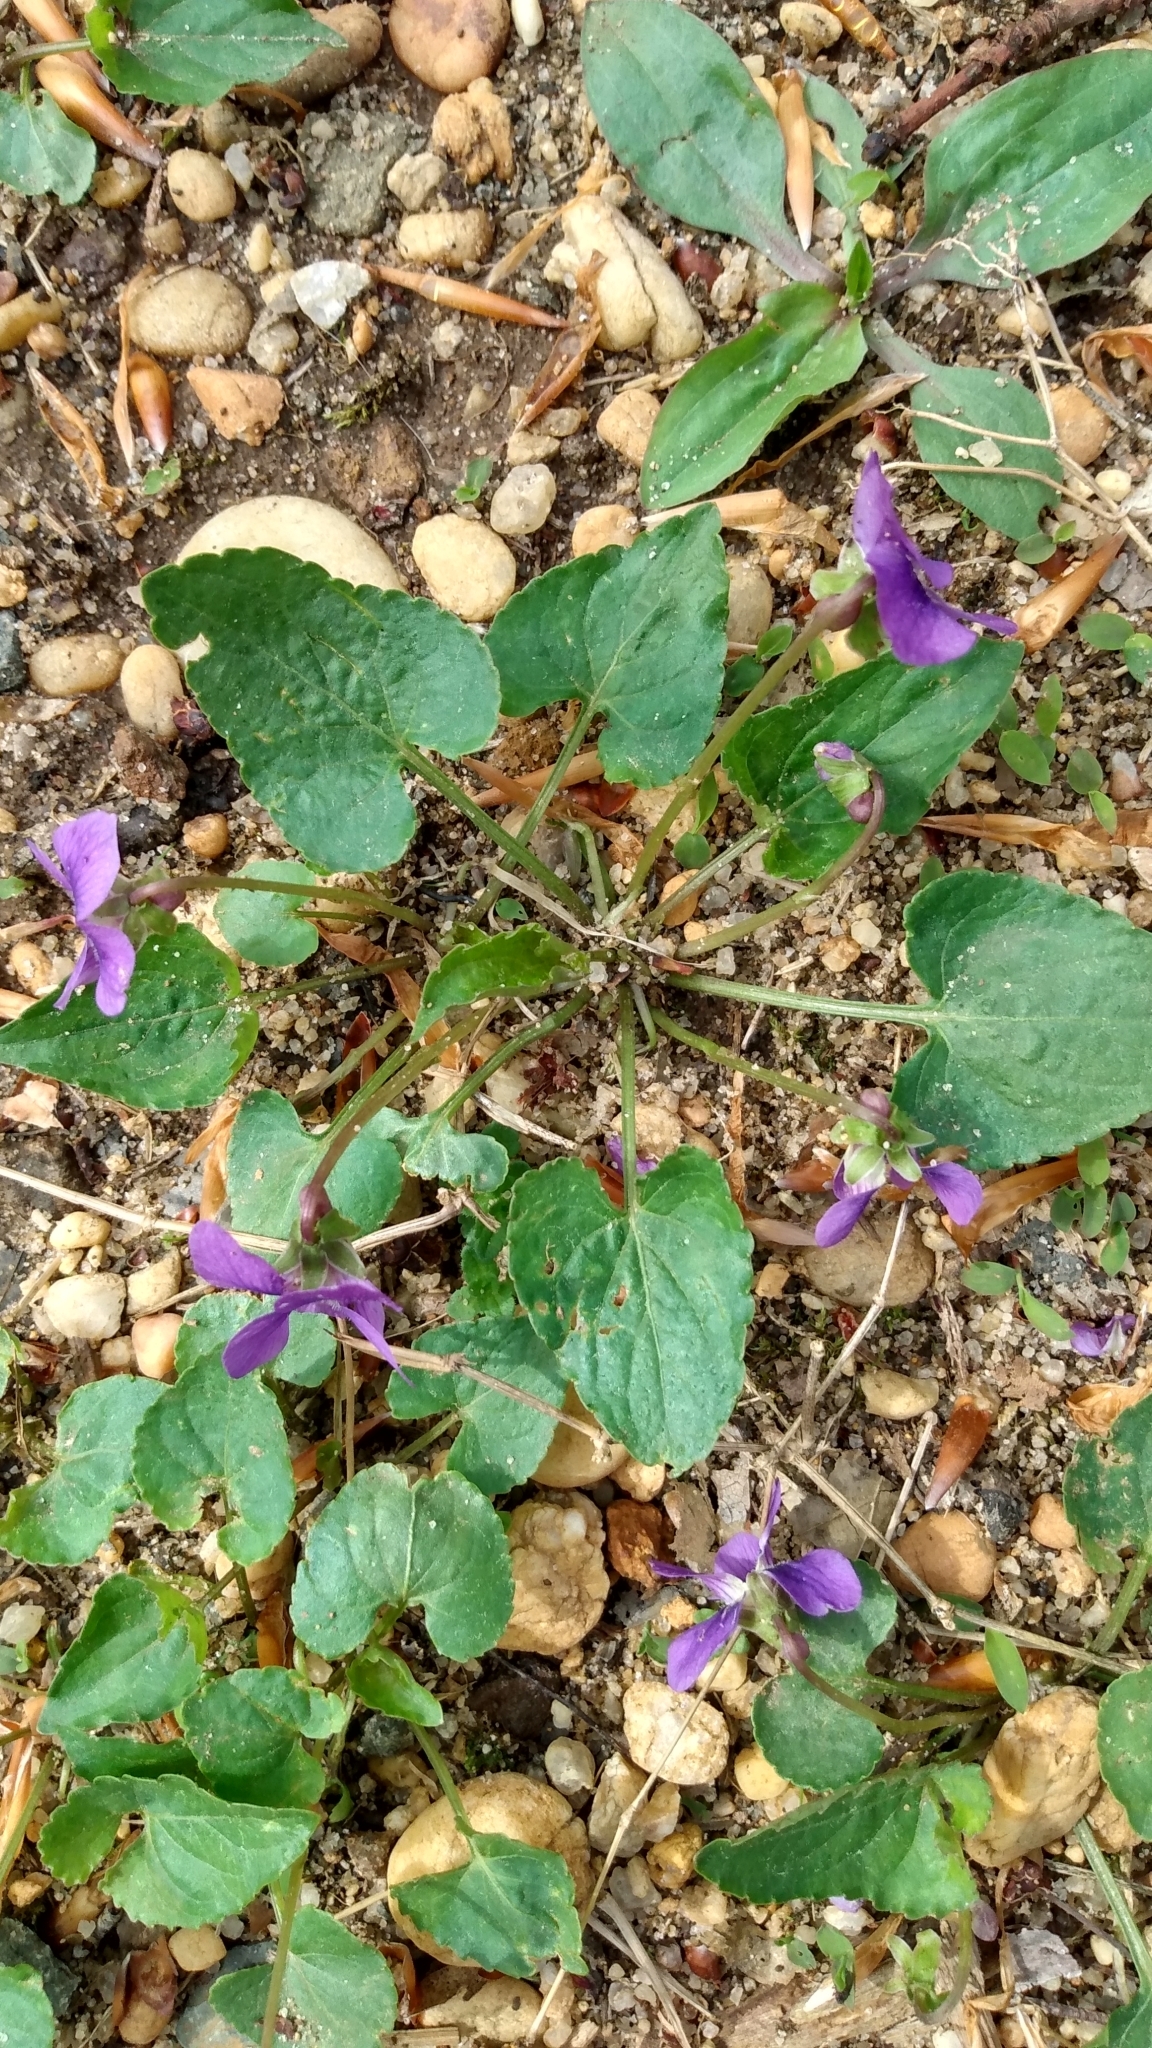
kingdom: Plantae
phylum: Tracheophyta
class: Magnoliopsida
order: Malpighiales
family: Violaceae
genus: Viola
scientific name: Viola sororia
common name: Dooryard violet
